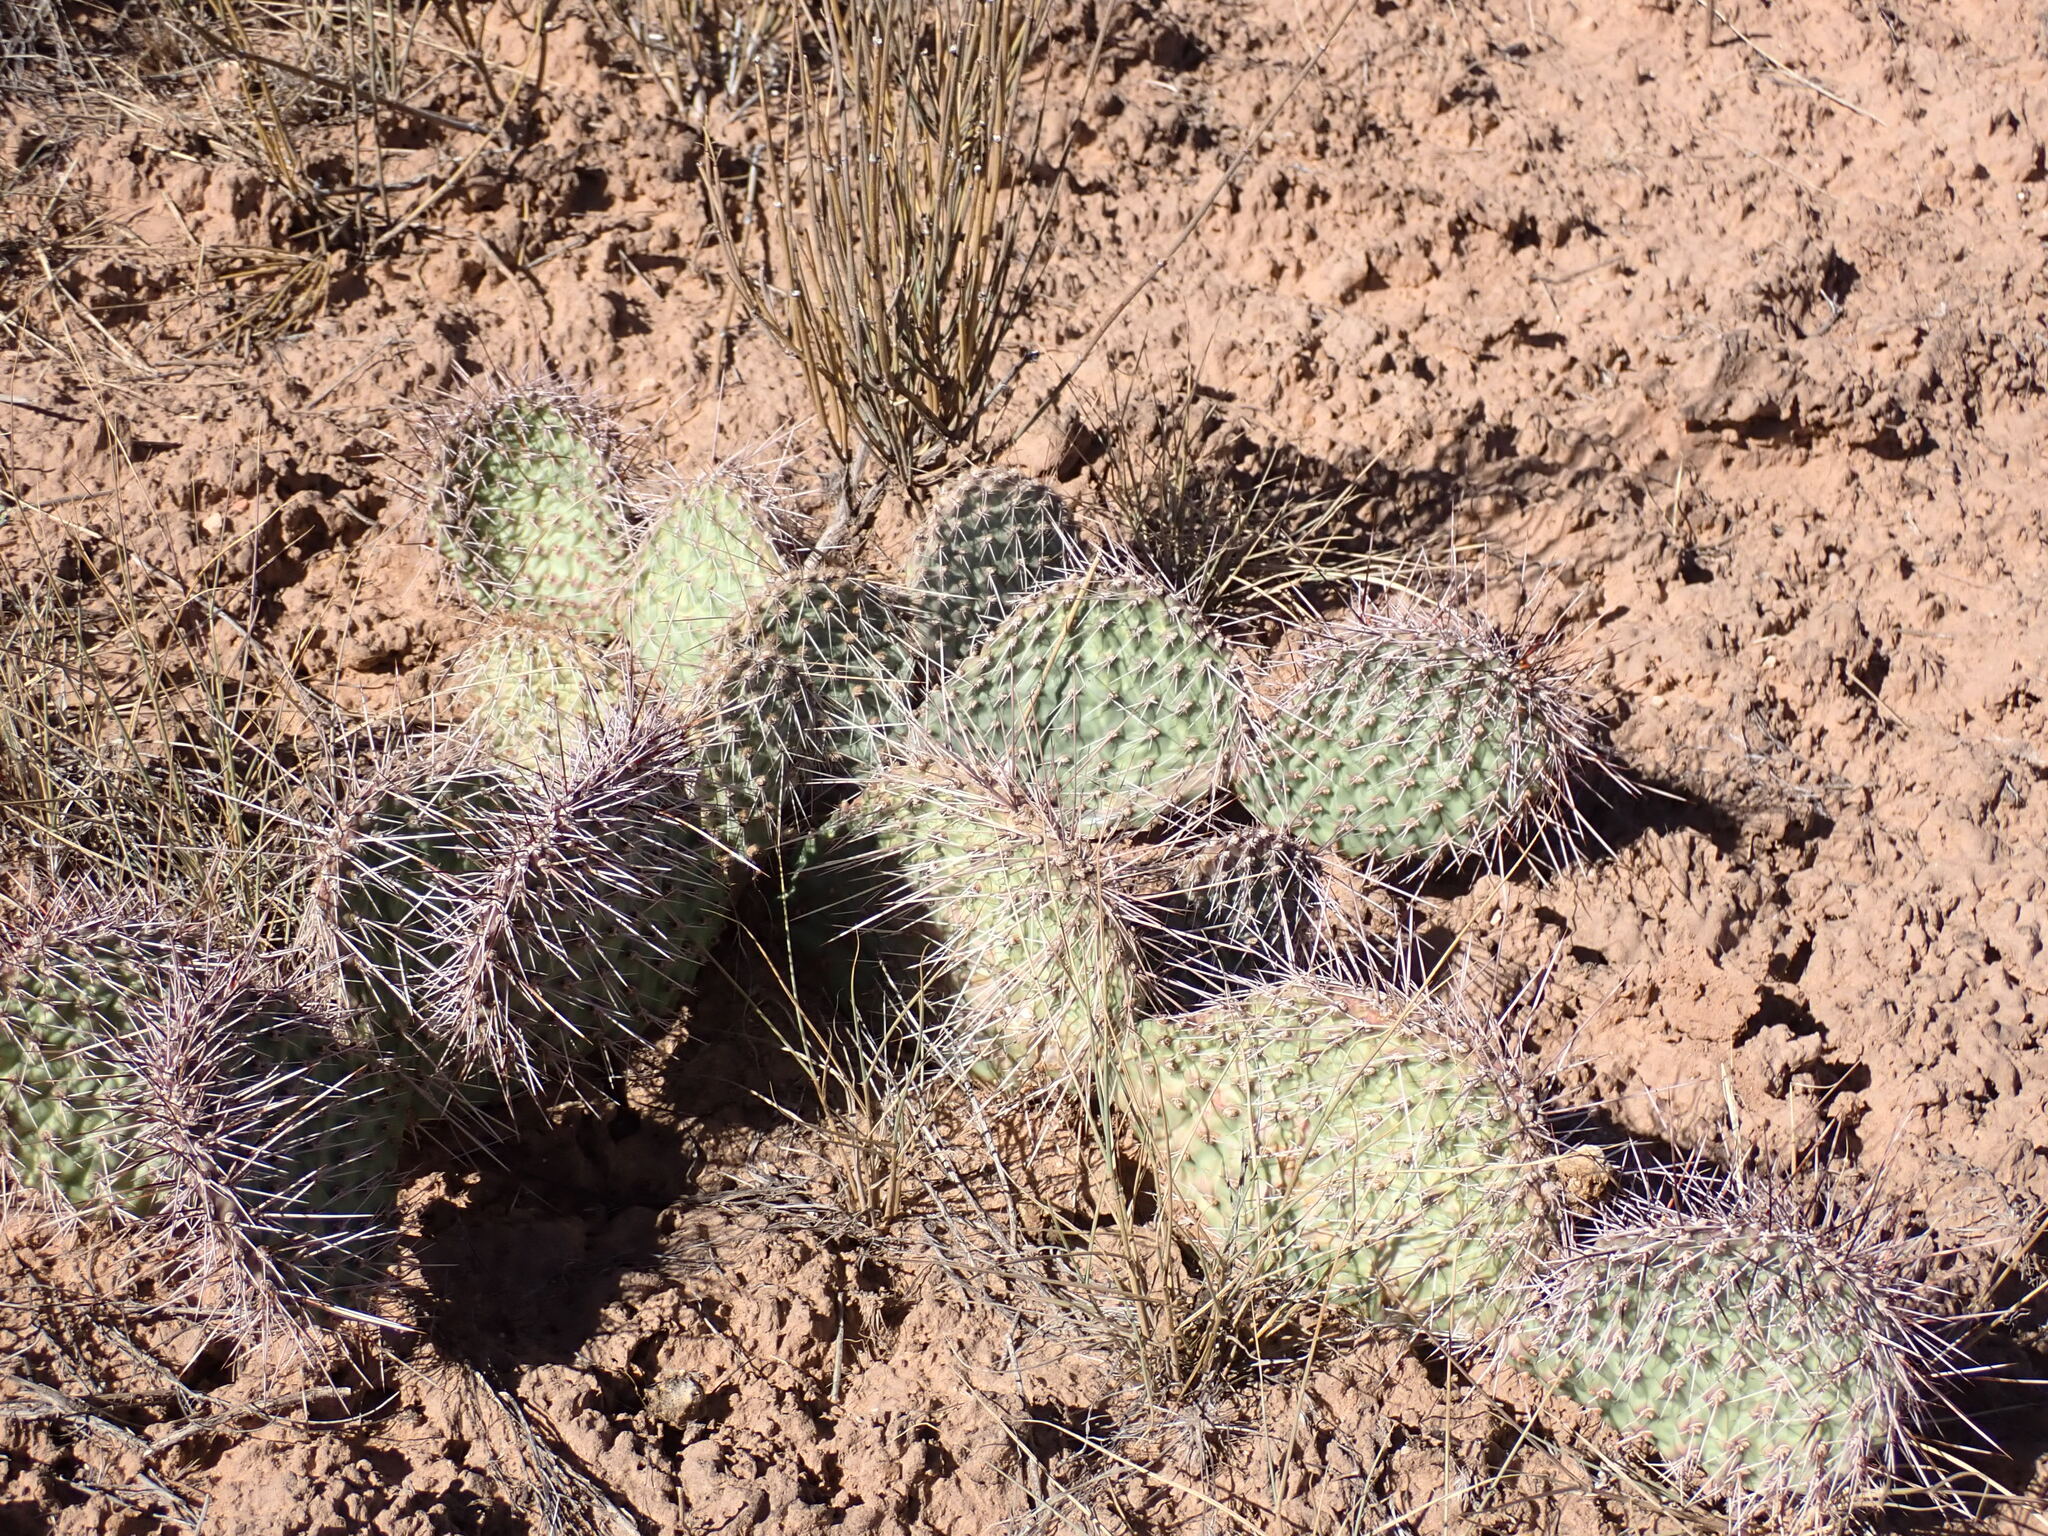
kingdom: Plantae
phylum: Tracheophyta
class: Magnoliopsida
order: Caryophyllales
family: Cactaceae
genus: Opuntia
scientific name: Opuntia polyacantha
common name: Plains prickly-pear
